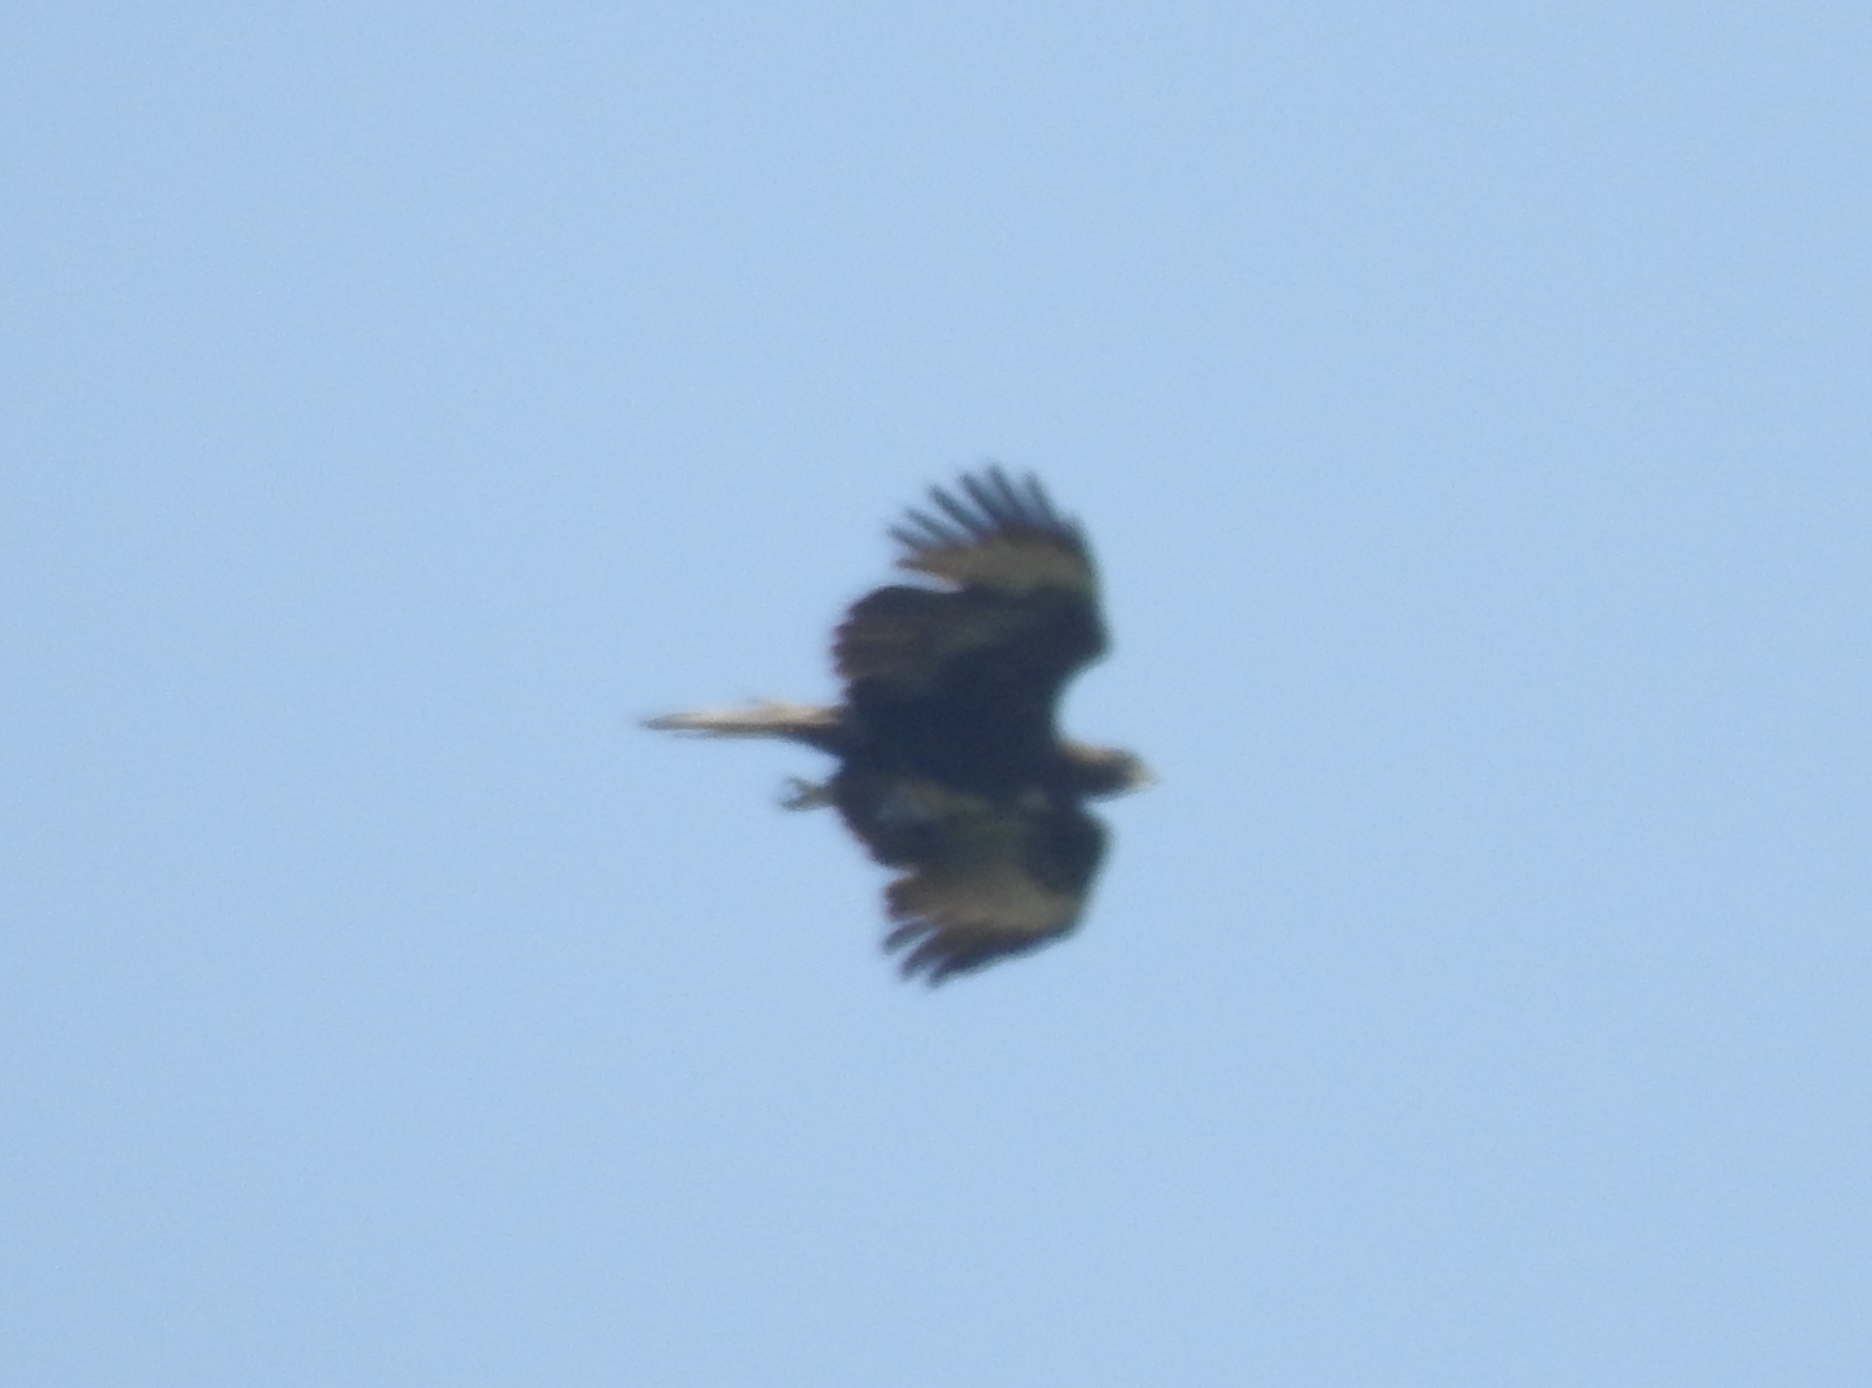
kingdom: Animalia
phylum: Chordata
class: Aves
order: Accipitriformes
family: Accipitridae
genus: Nisaetus
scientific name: Nisaetus cirrhatus
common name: Changeable hawk-eagle
